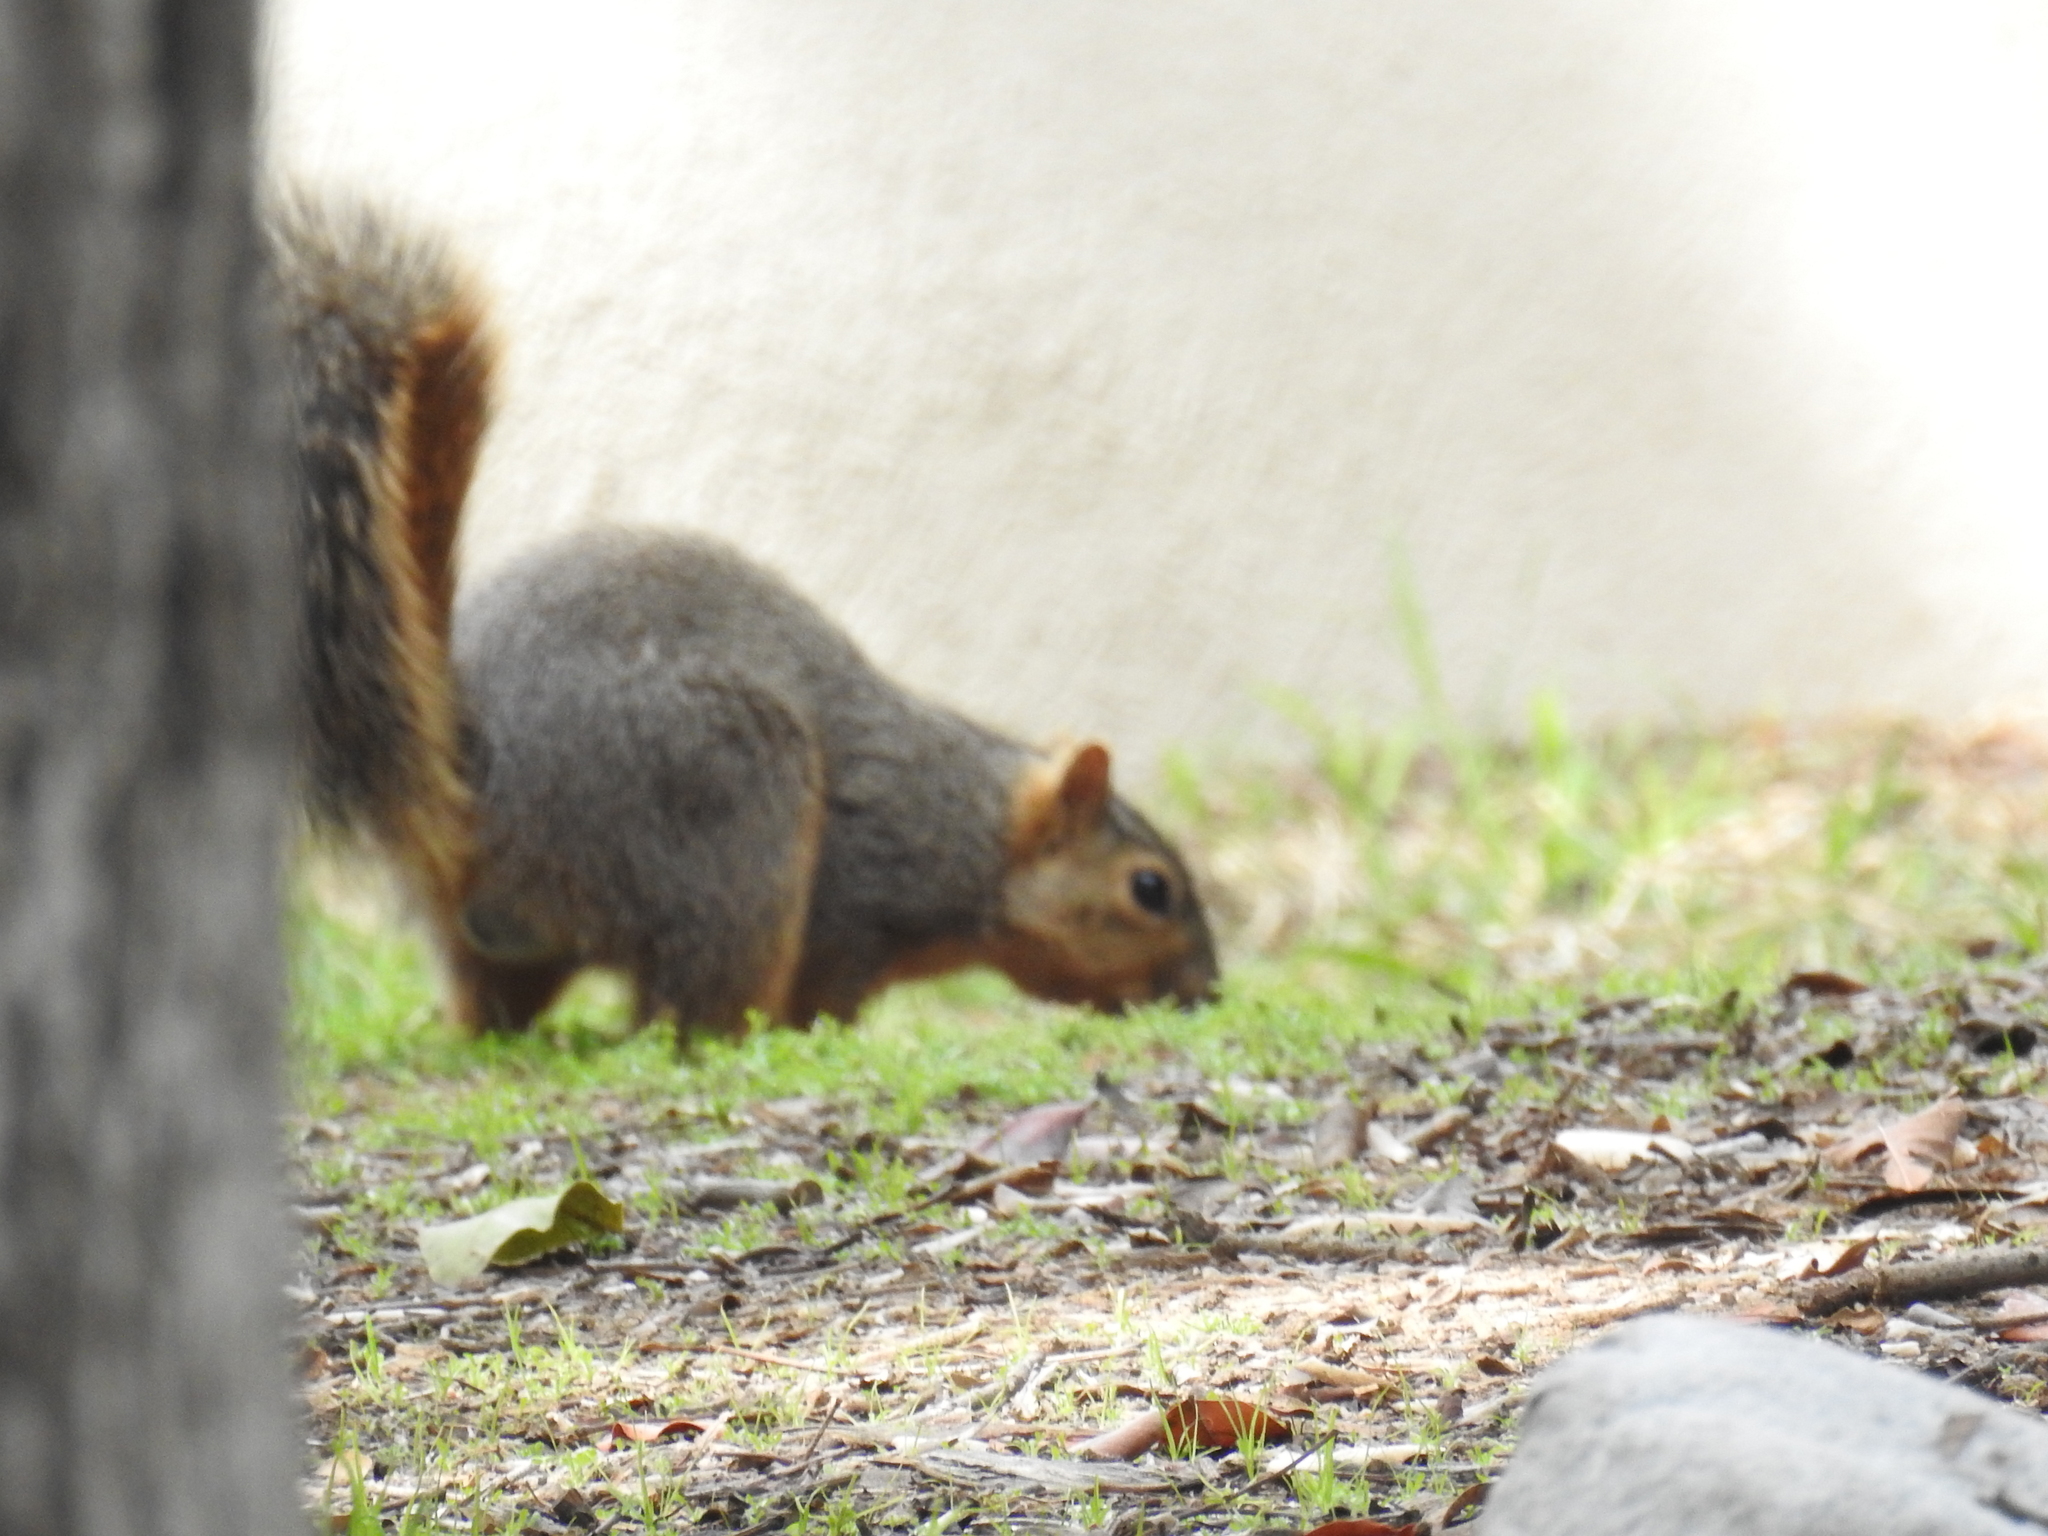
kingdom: Animalia
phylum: Chordata
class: Mammalia
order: Rodentia
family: Sciuridae
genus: Sciurus
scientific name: Sciurus niger
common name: Fox squirrel
